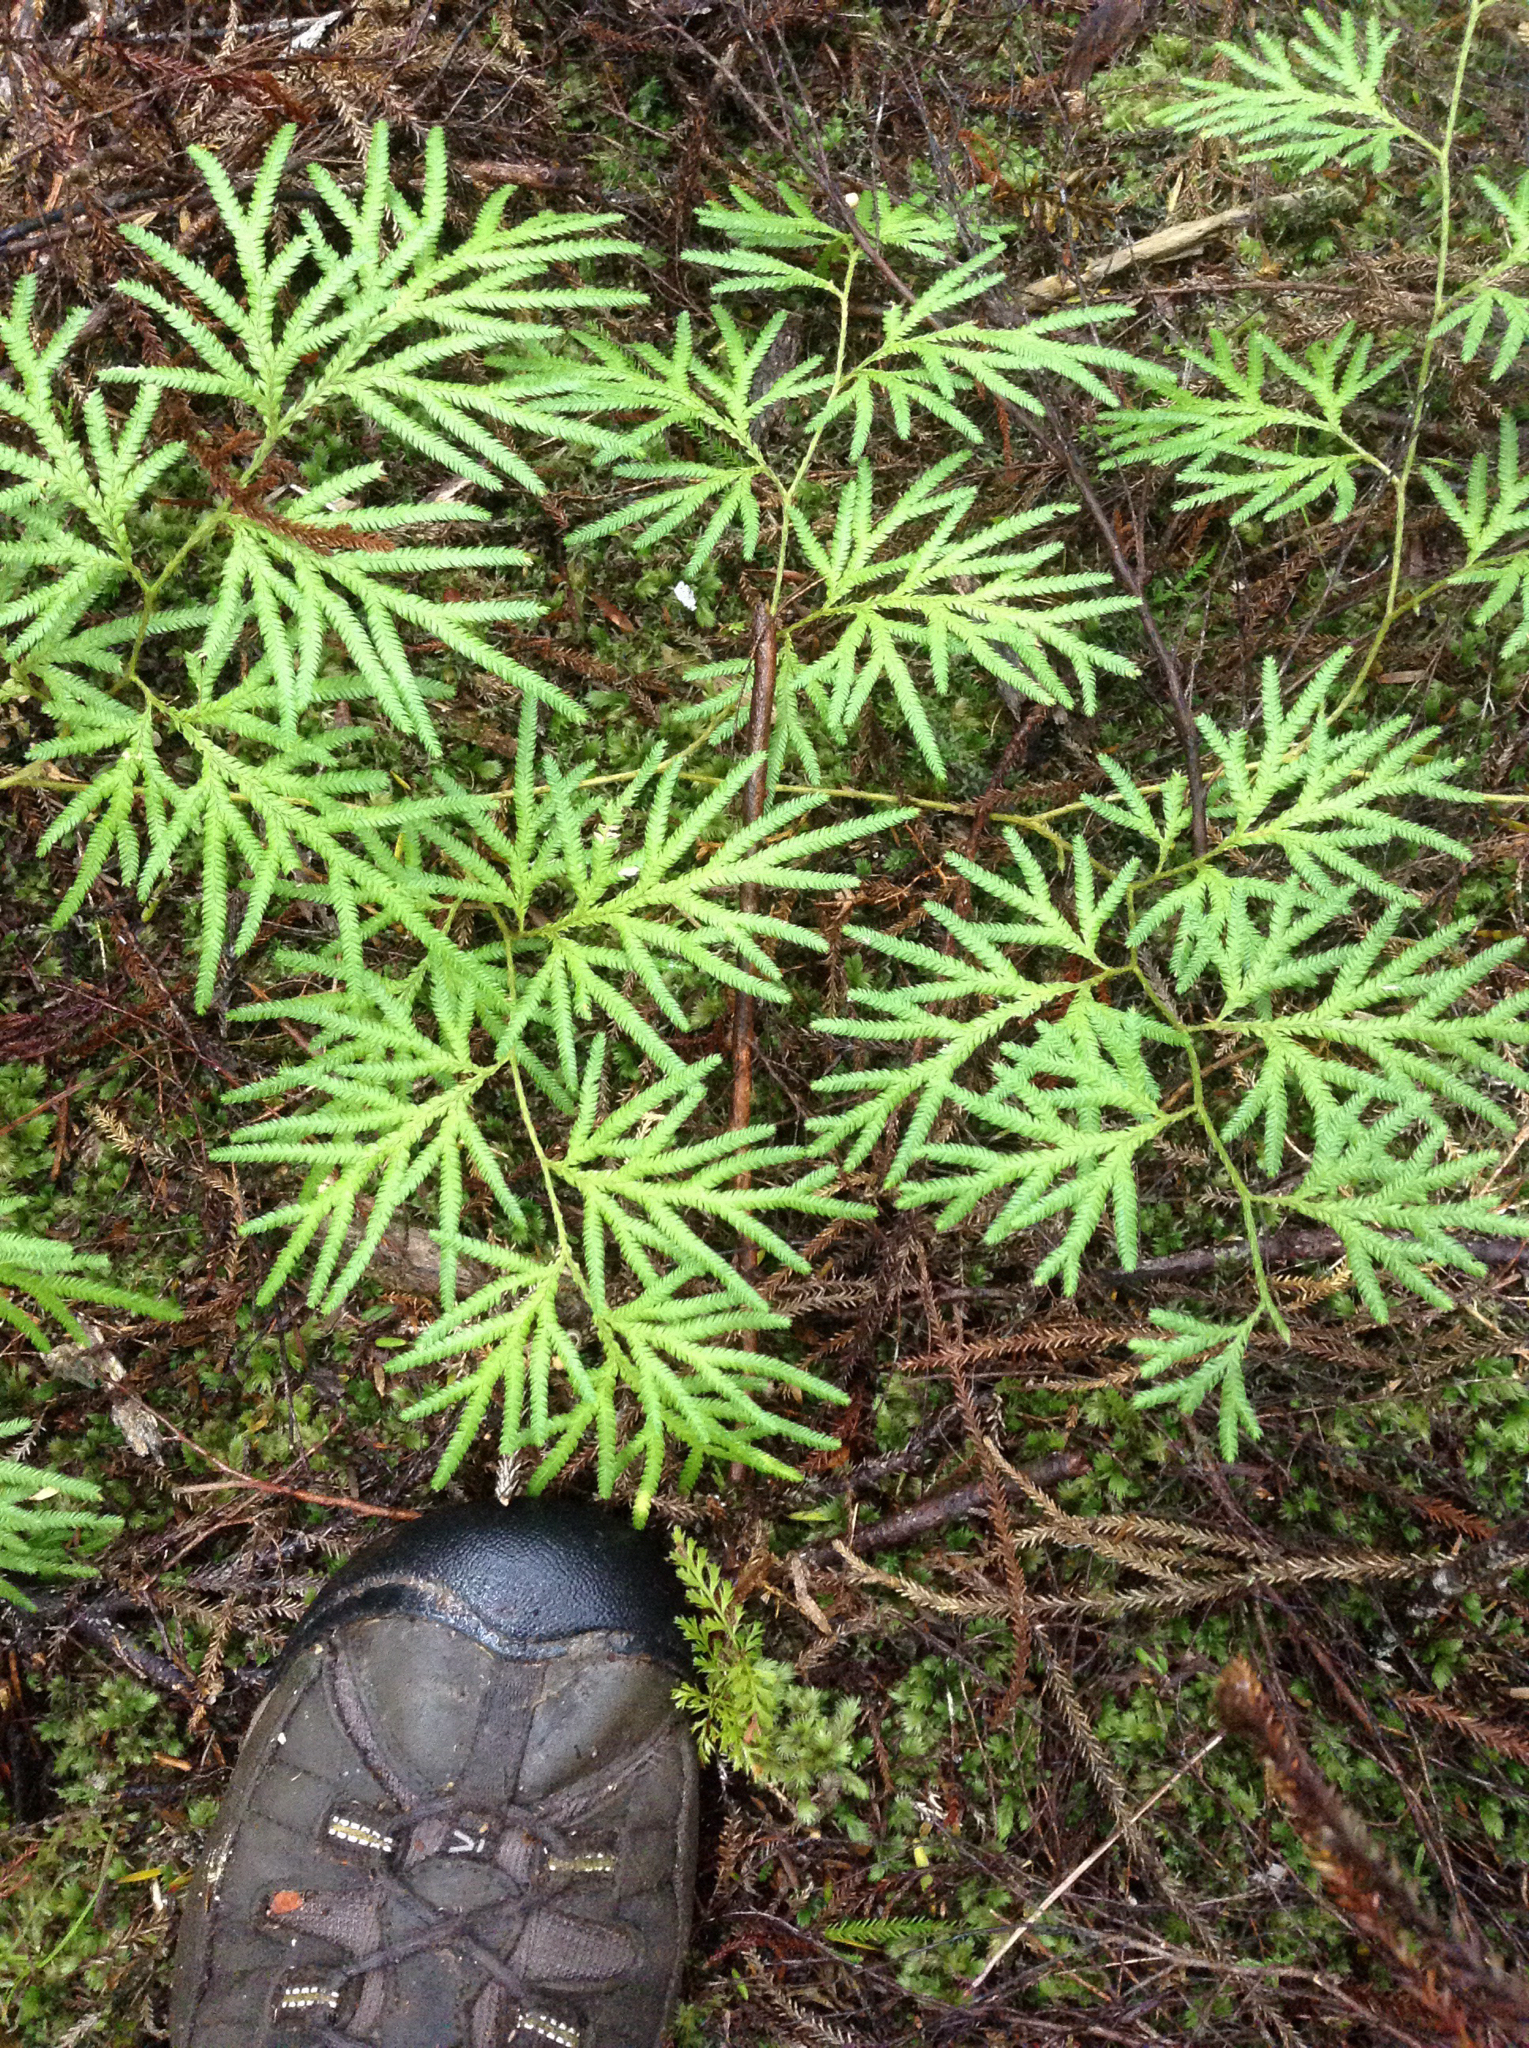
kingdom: Plantae
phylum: Tracheophyta
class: Lycopodiopsida
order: Lycopodiales
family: Lycopodiaceae
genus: Lycopodium
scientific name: Lycopodium volubile
